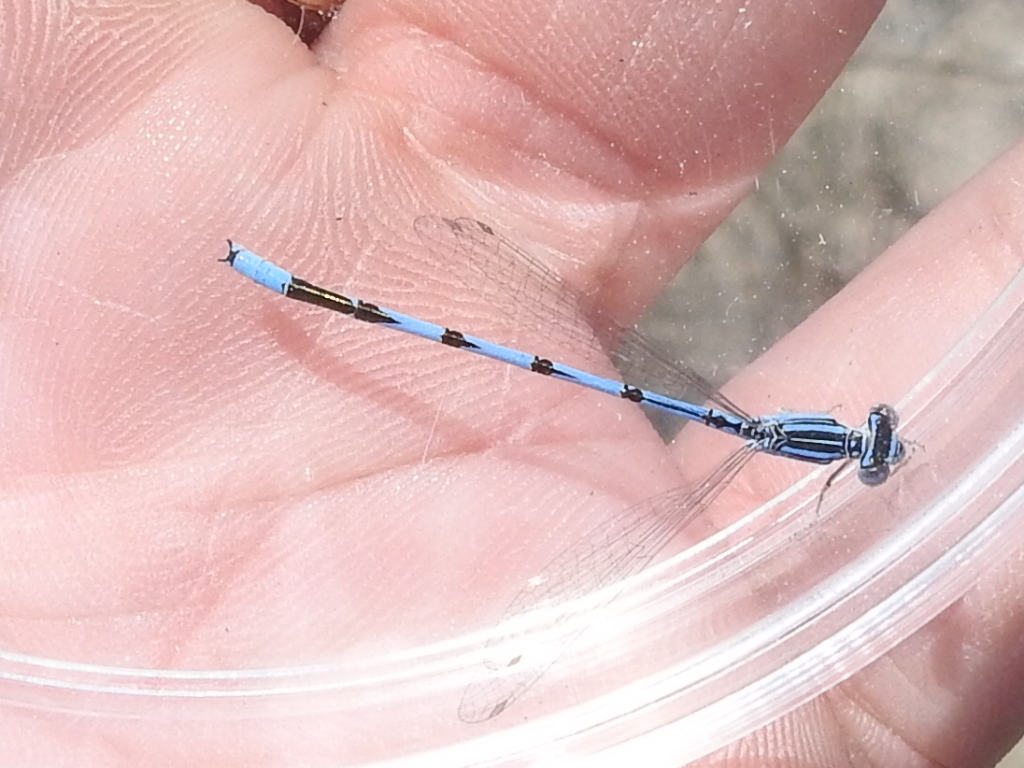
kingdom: Animalia
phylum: Arthropoda
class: Insecta
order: Odonata
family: Coenagrionidae
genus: Enallagma
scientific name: Enallagma basidens
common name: Double-striped bluet
